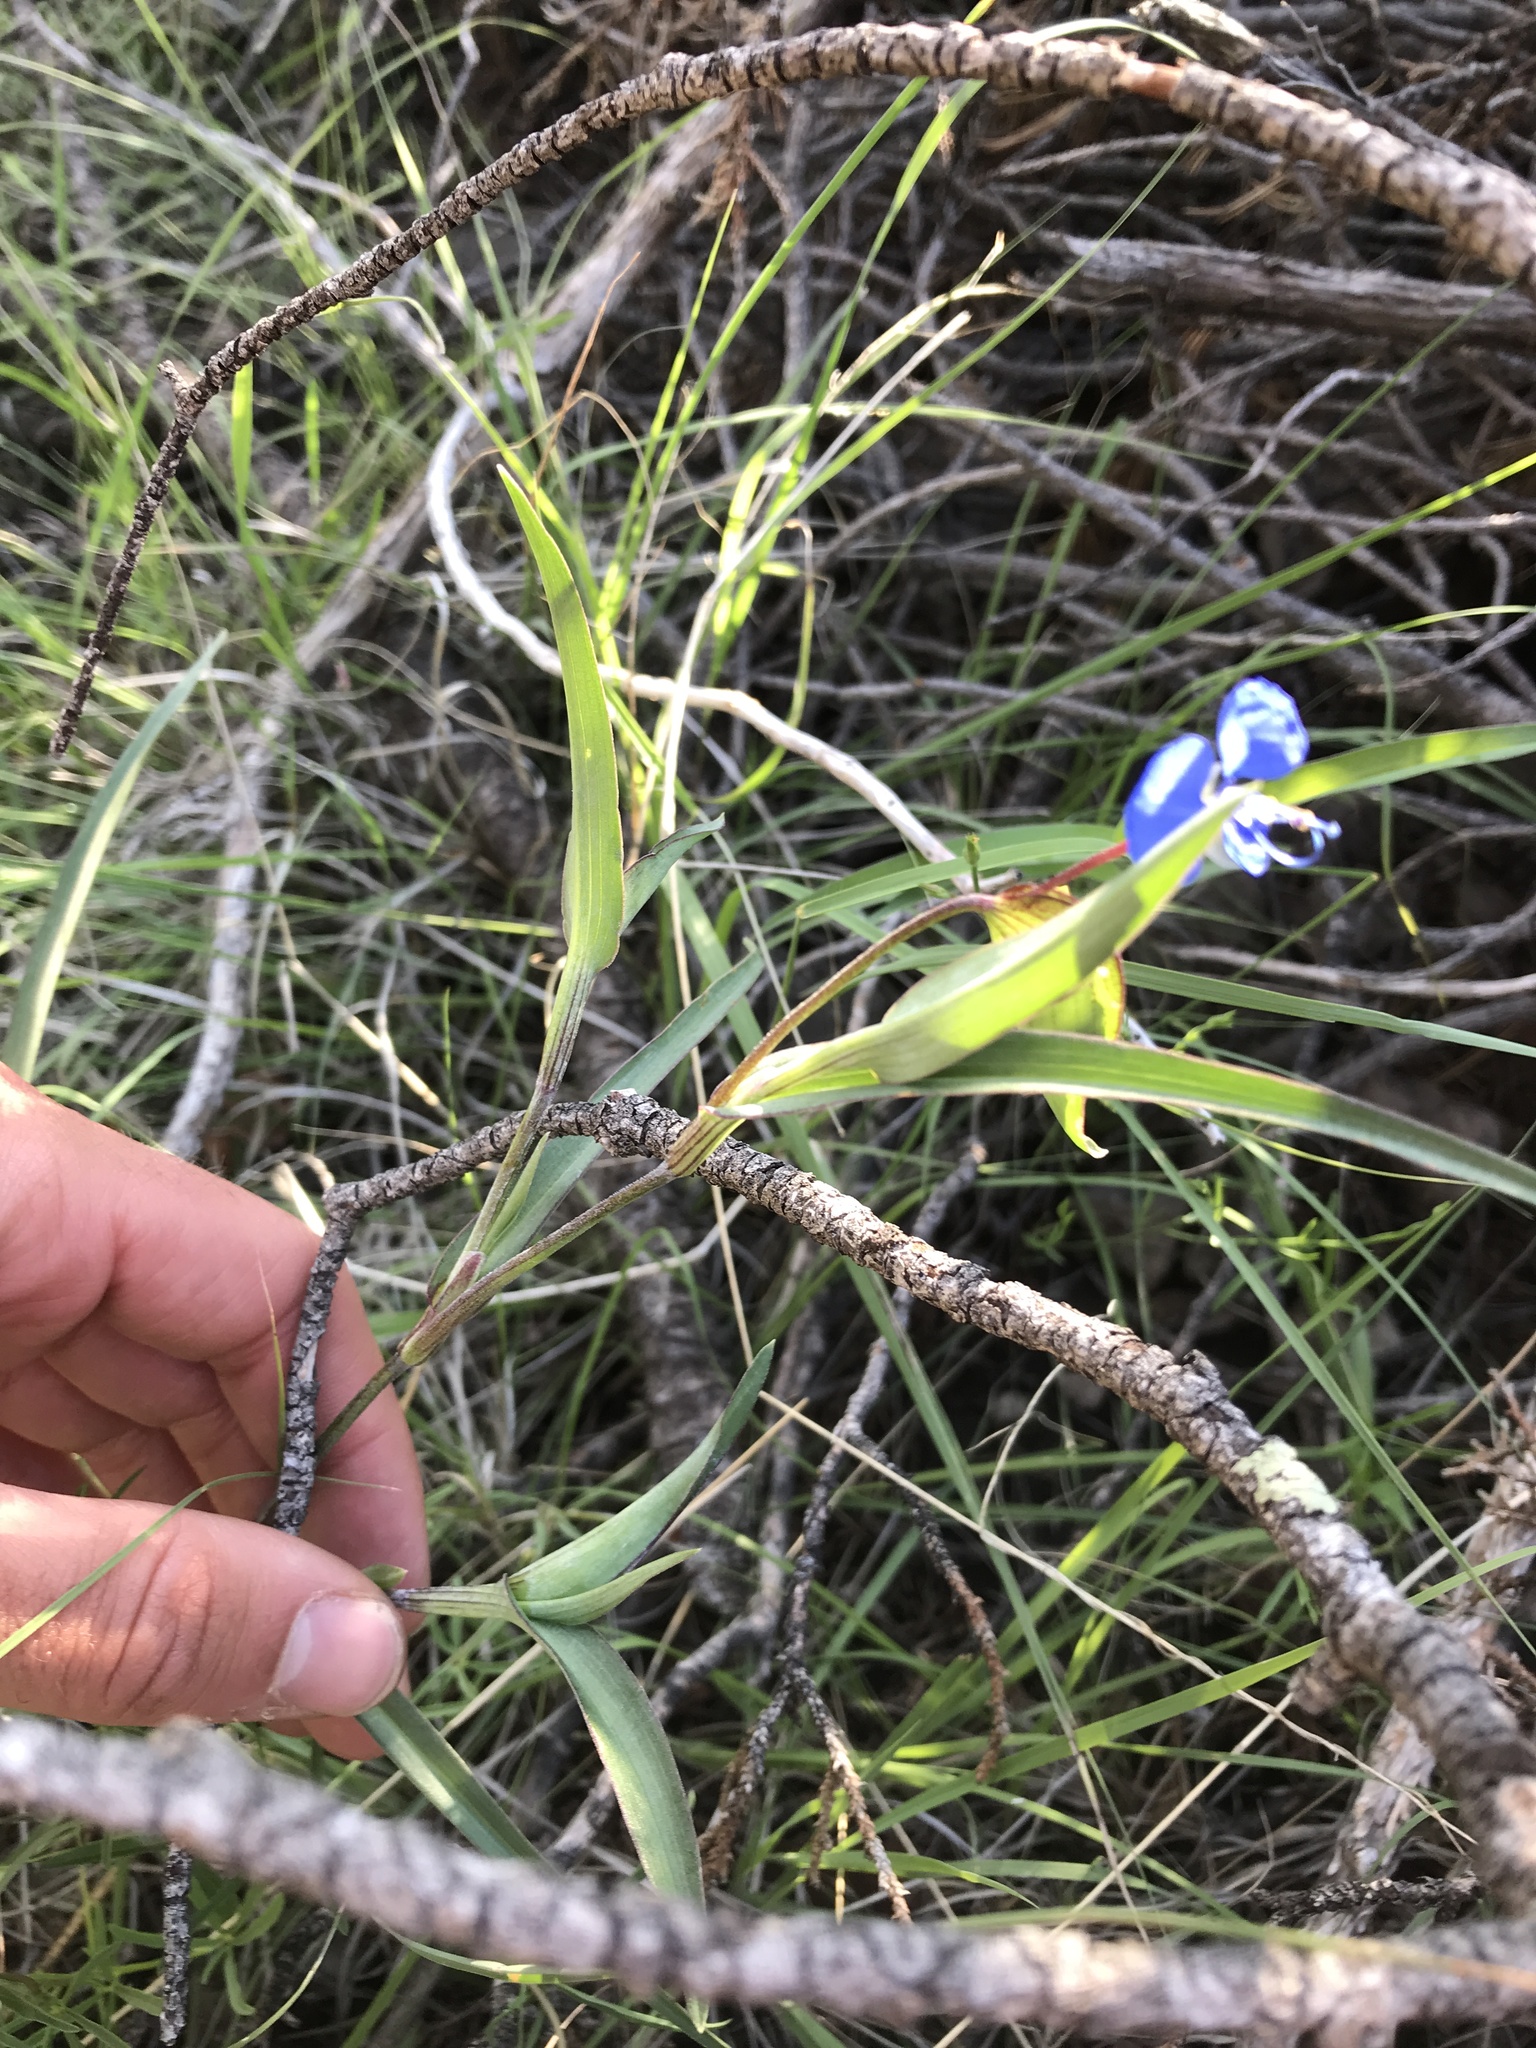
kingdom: Plantae
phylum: Tracheophyta
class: Liliopsida
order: Commelinales
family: Commelinaceae
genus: Commelina
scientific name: Commelina dianthifolia
